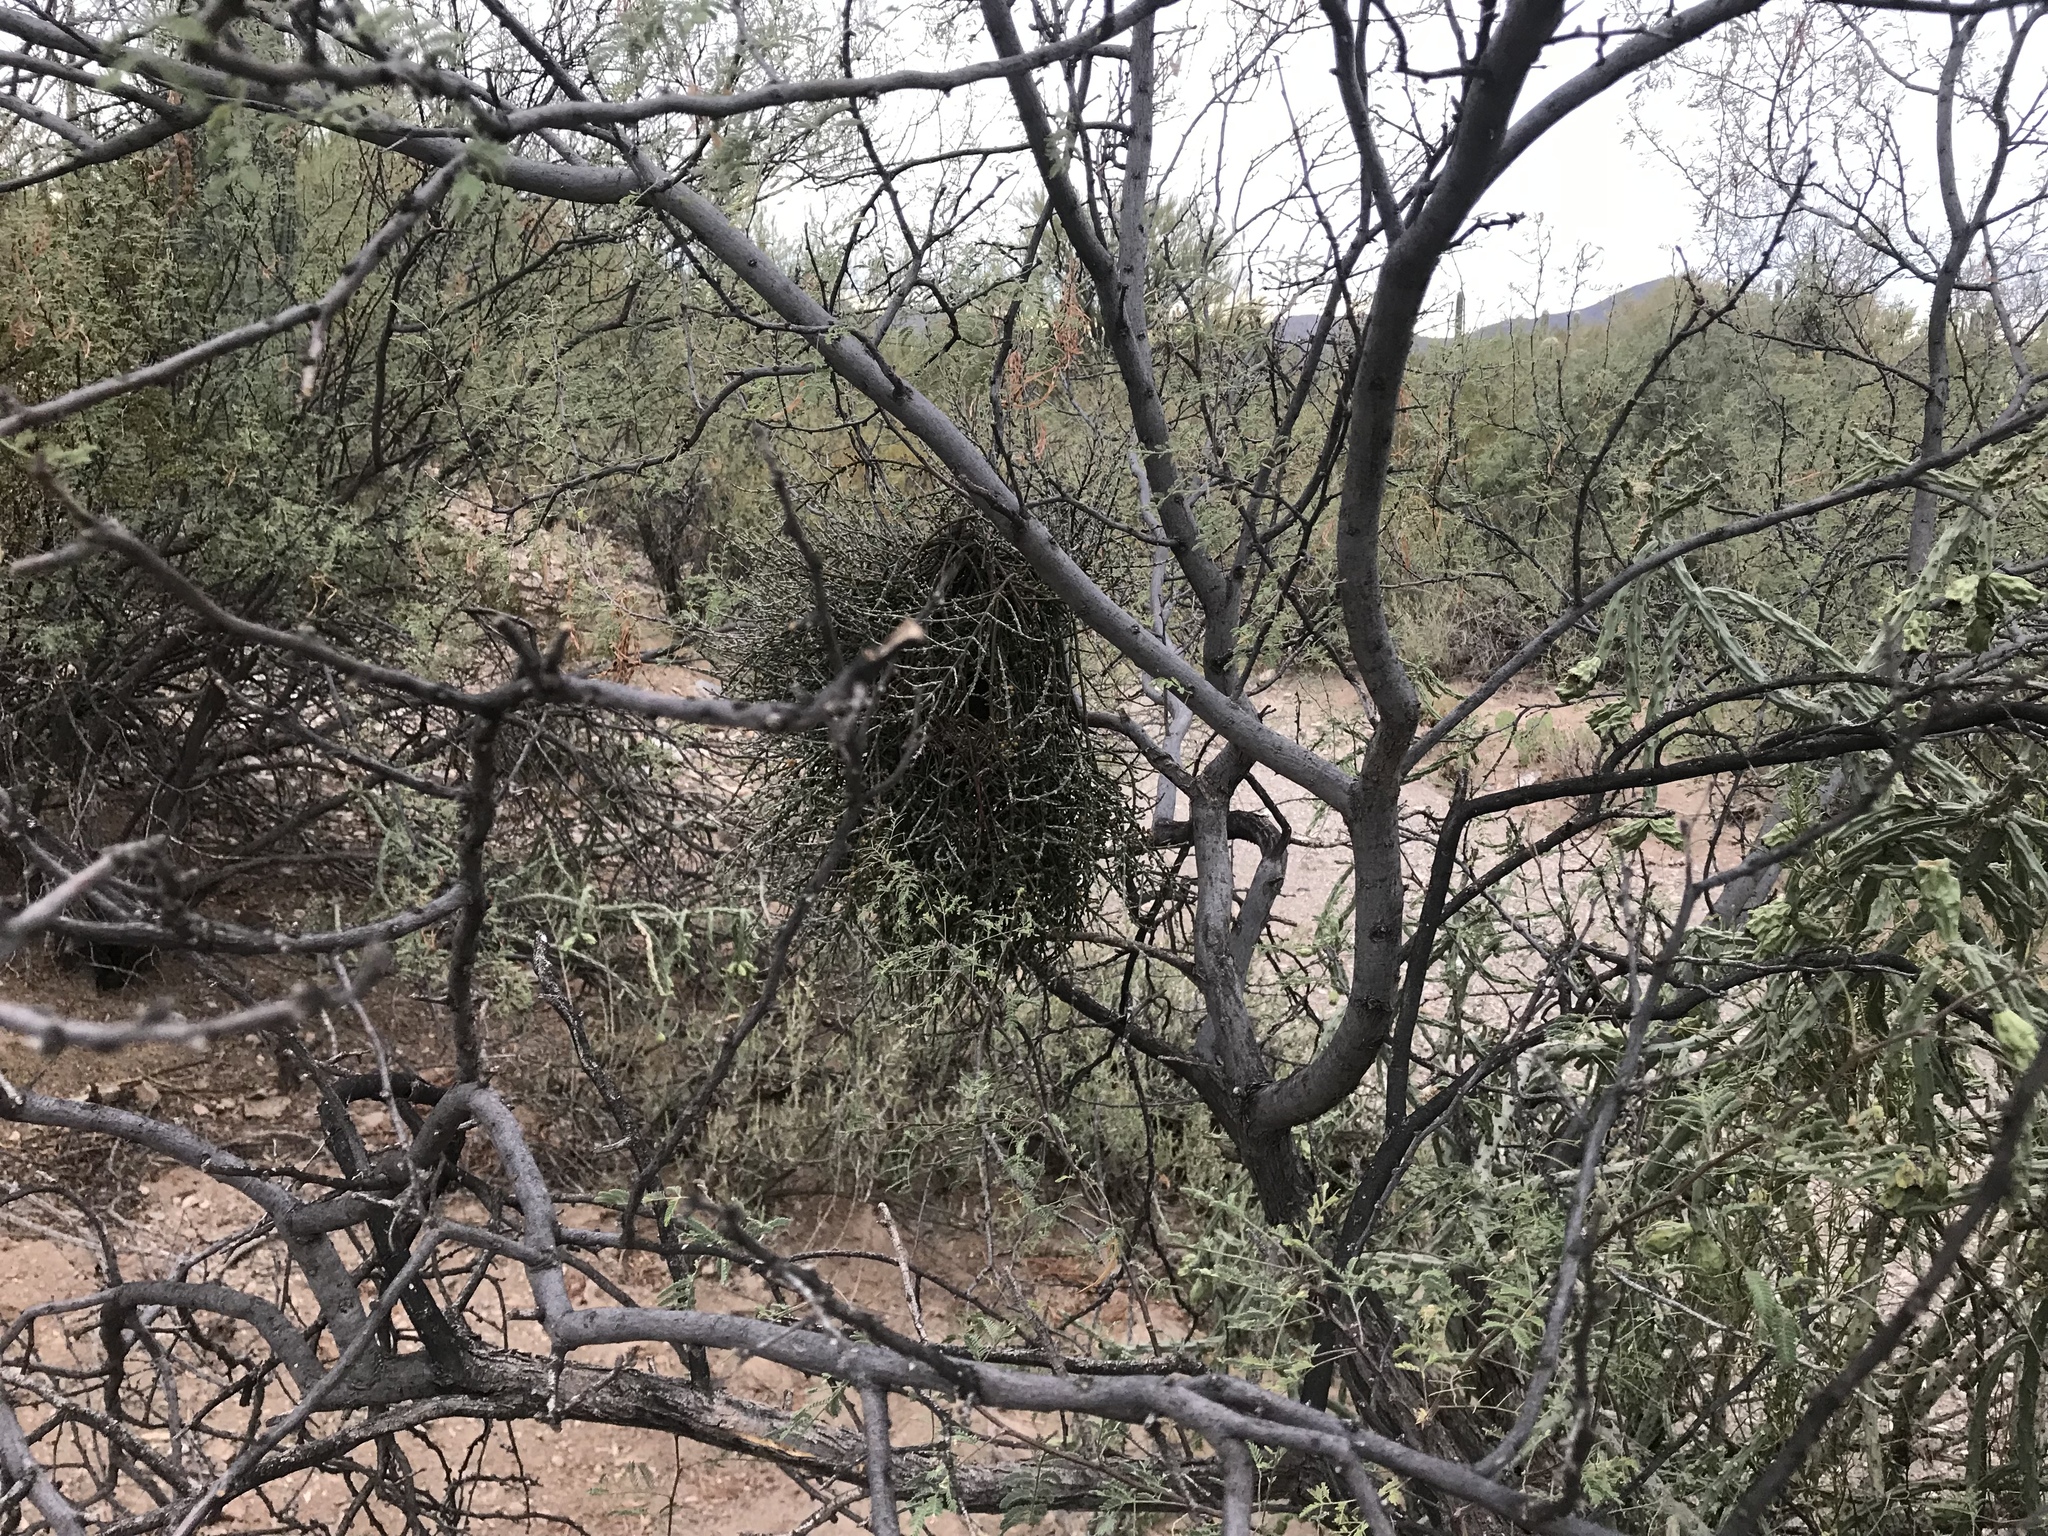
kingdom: Plantae
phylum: Tracheophyta
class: Magnoliopsida
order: Santalales
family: Viscaceae
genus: Phoradendron
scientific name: Phoradendron californicum
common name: Acacia mistletoe
